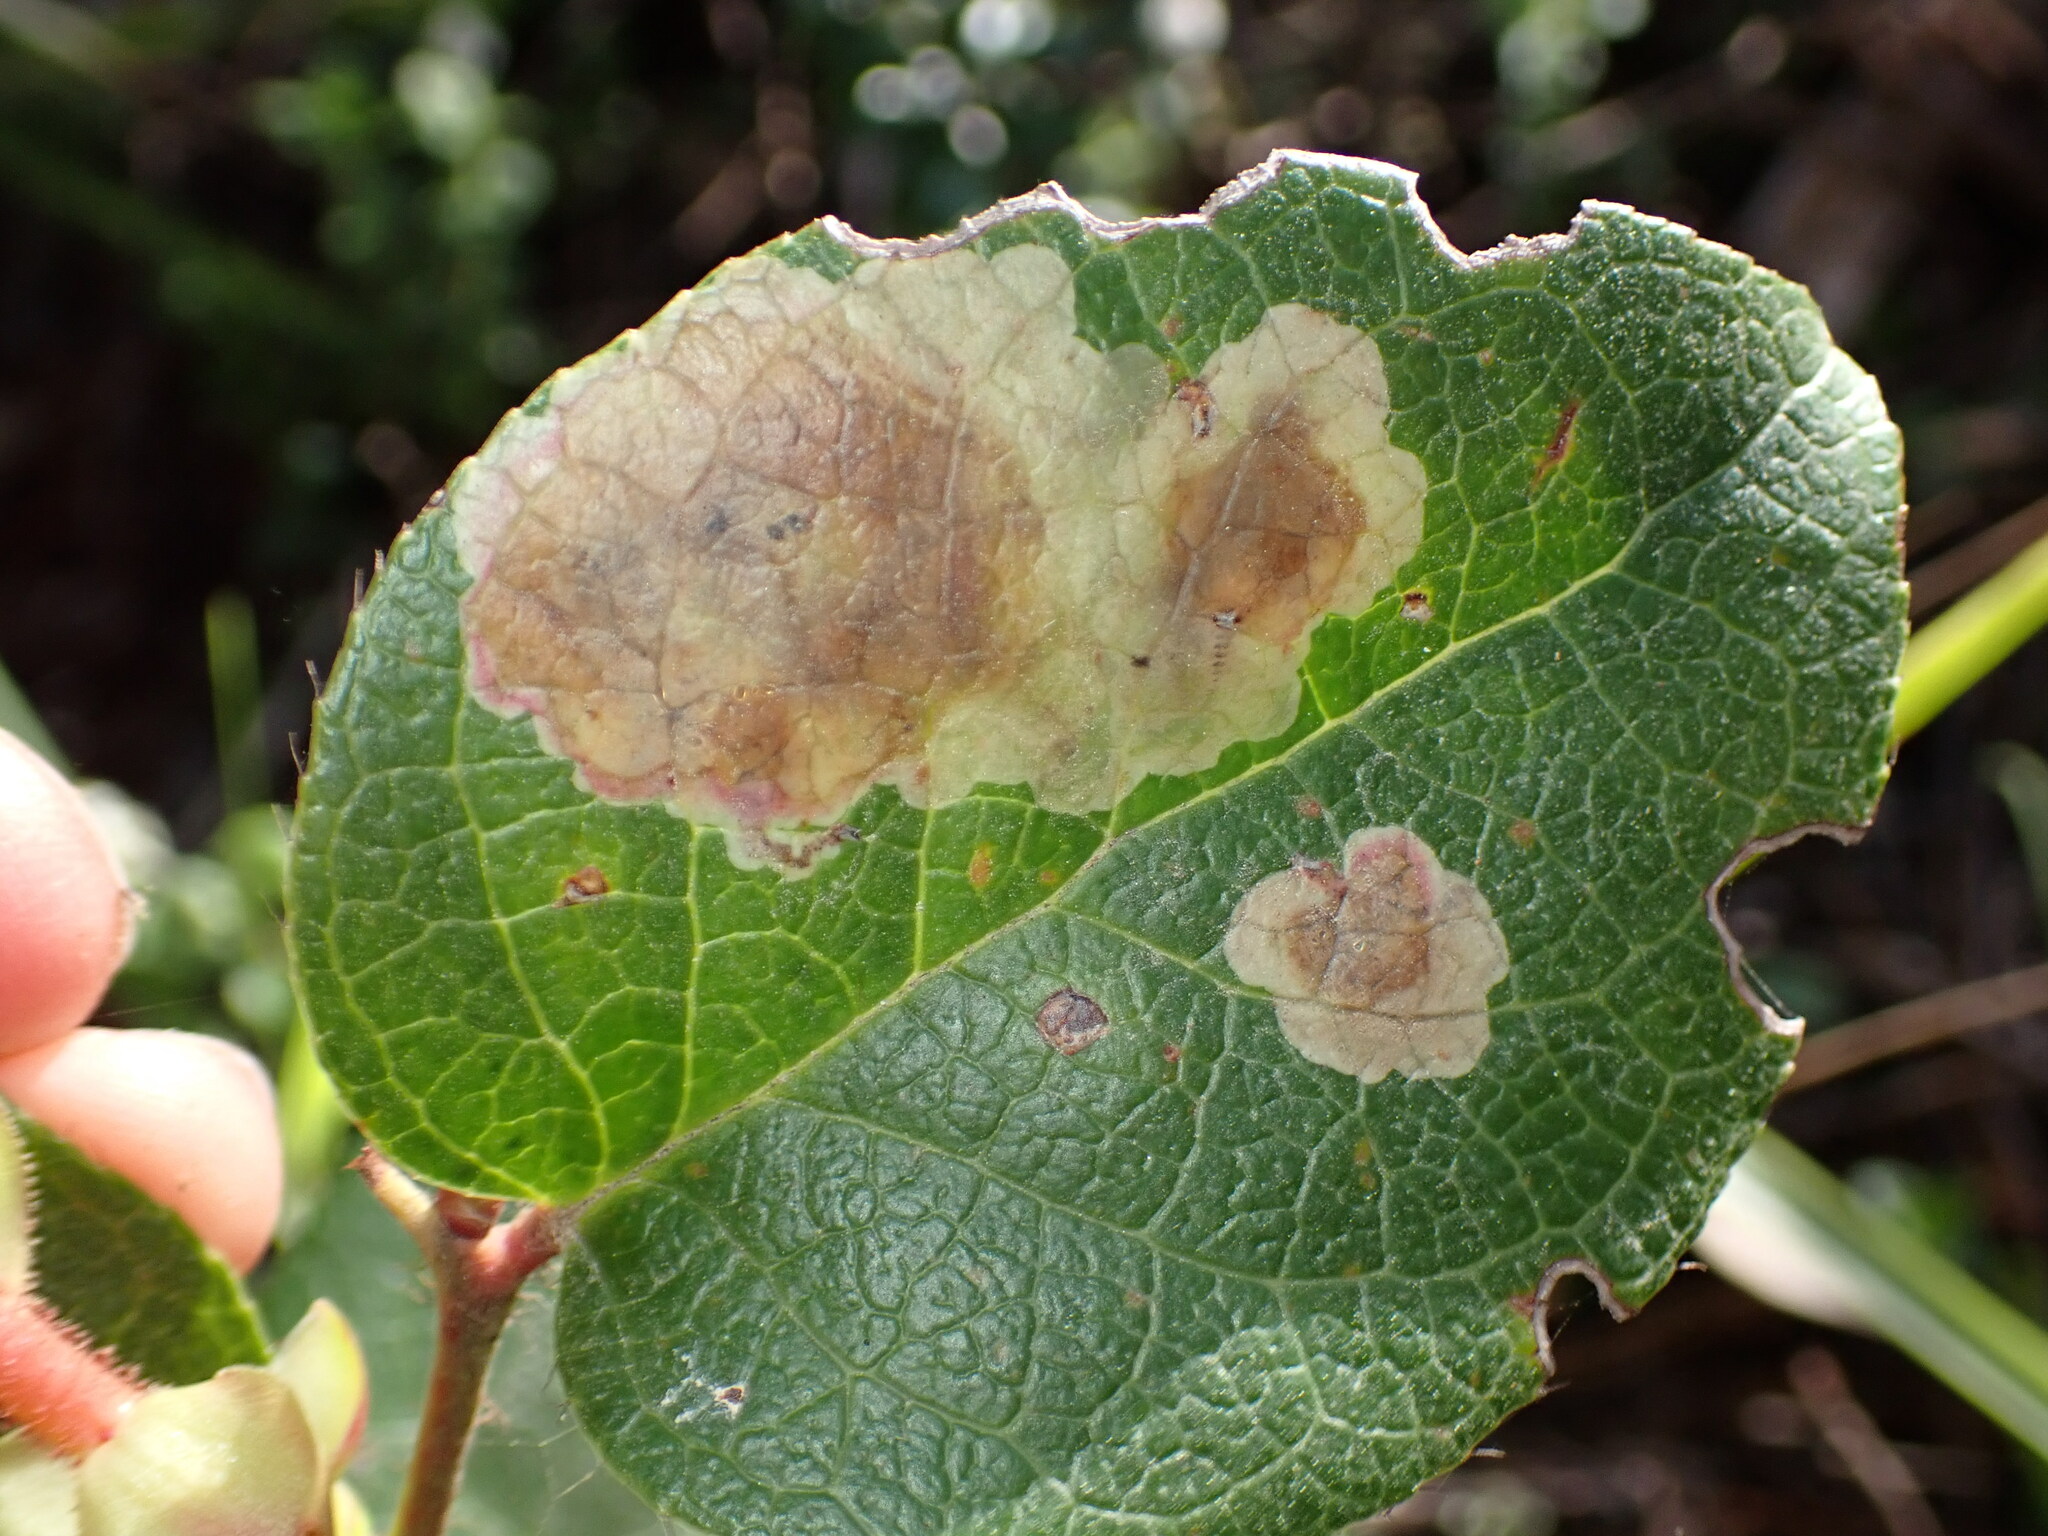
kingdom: Animalia
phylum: Arthropoda
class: Insecta
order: Lepidoptera
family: Gracillariidae
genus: Cameraria
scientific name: Cameraria gaultheriella
